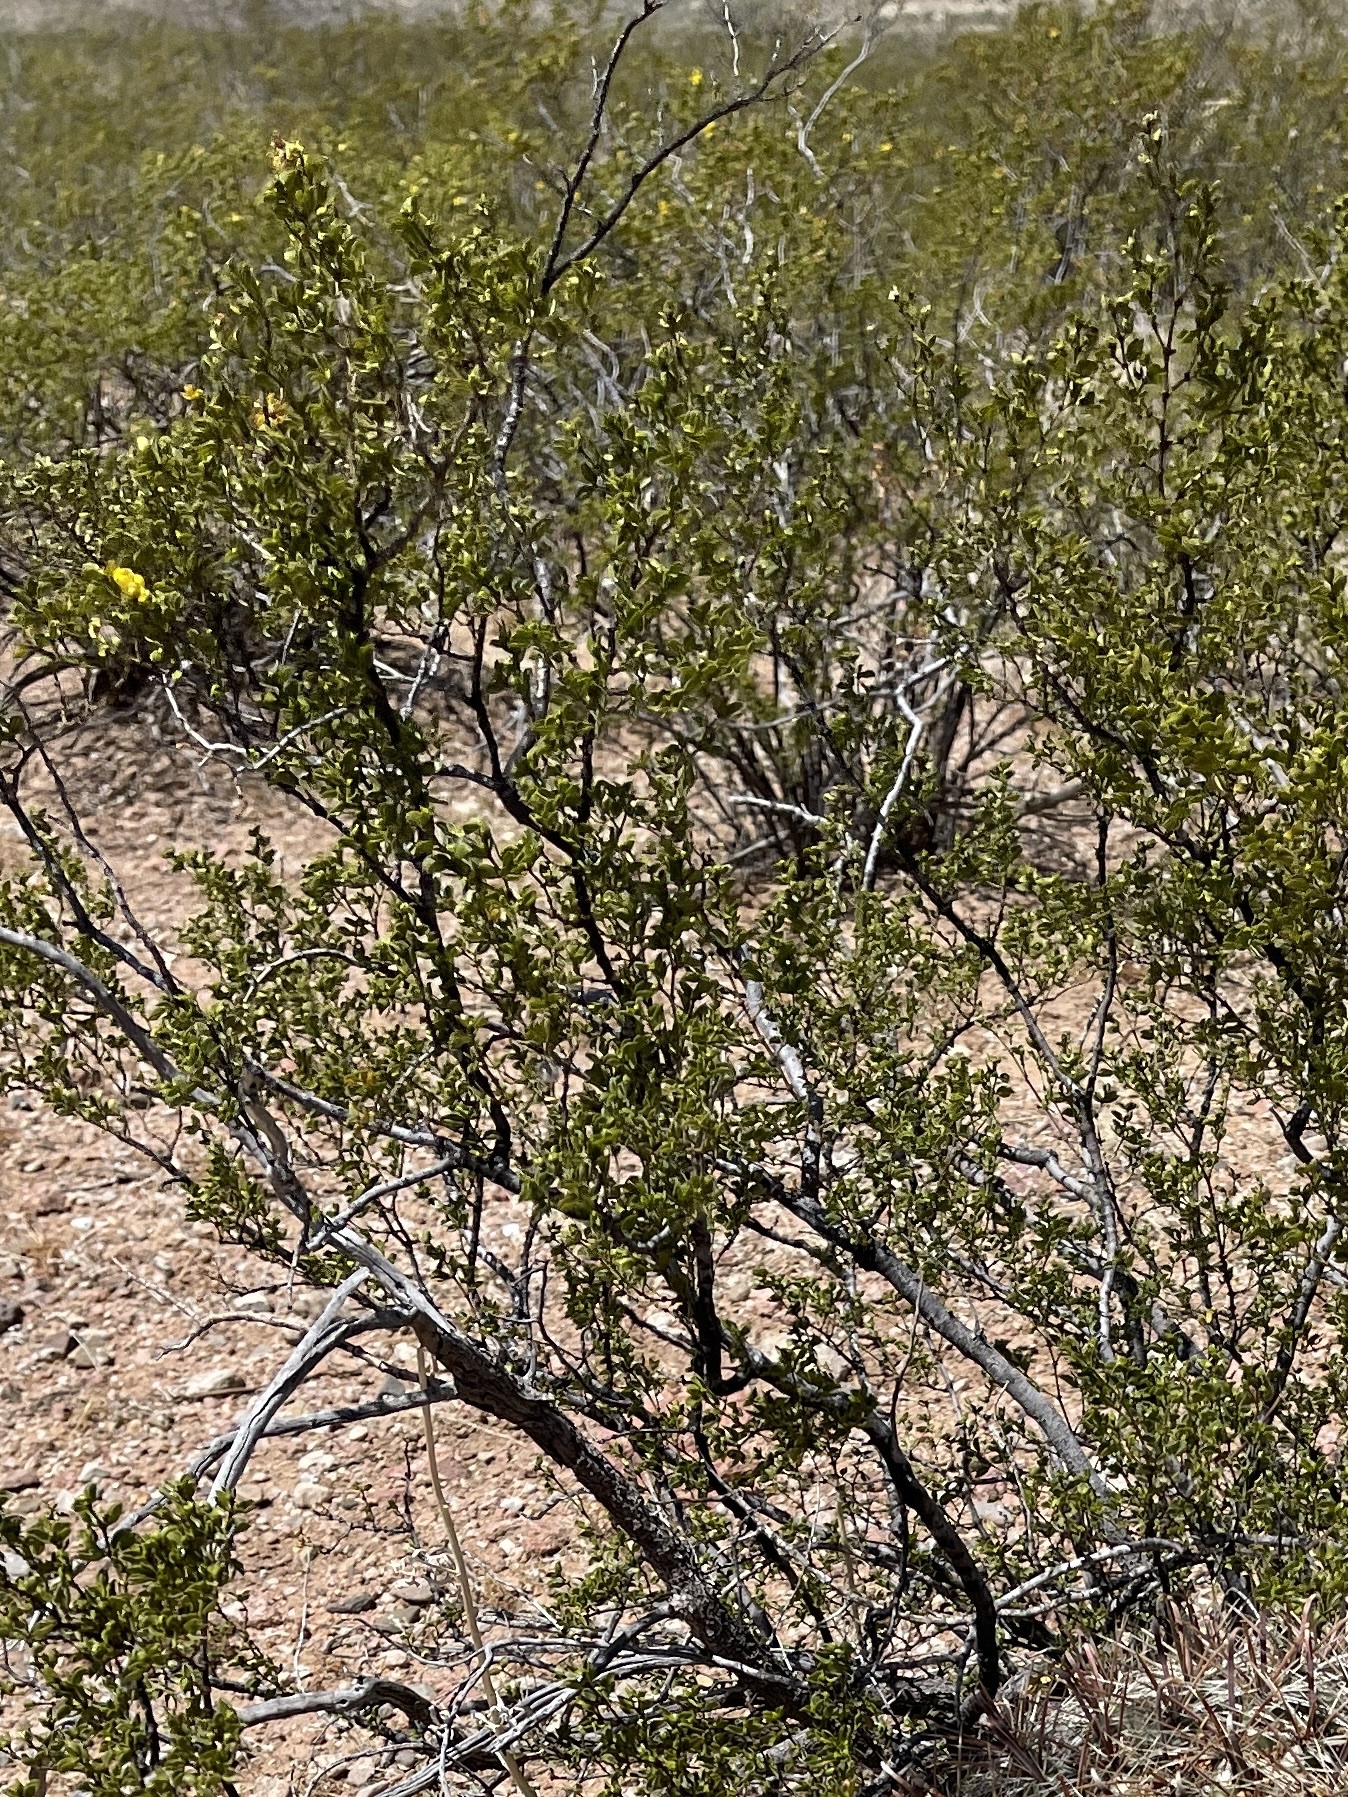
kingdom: Plantae
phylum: Tracheophyta
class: Magnoliopsida
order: Zygophyllales
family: Zygophyllaceae
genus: Larrea
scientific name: Larrea tridentata
